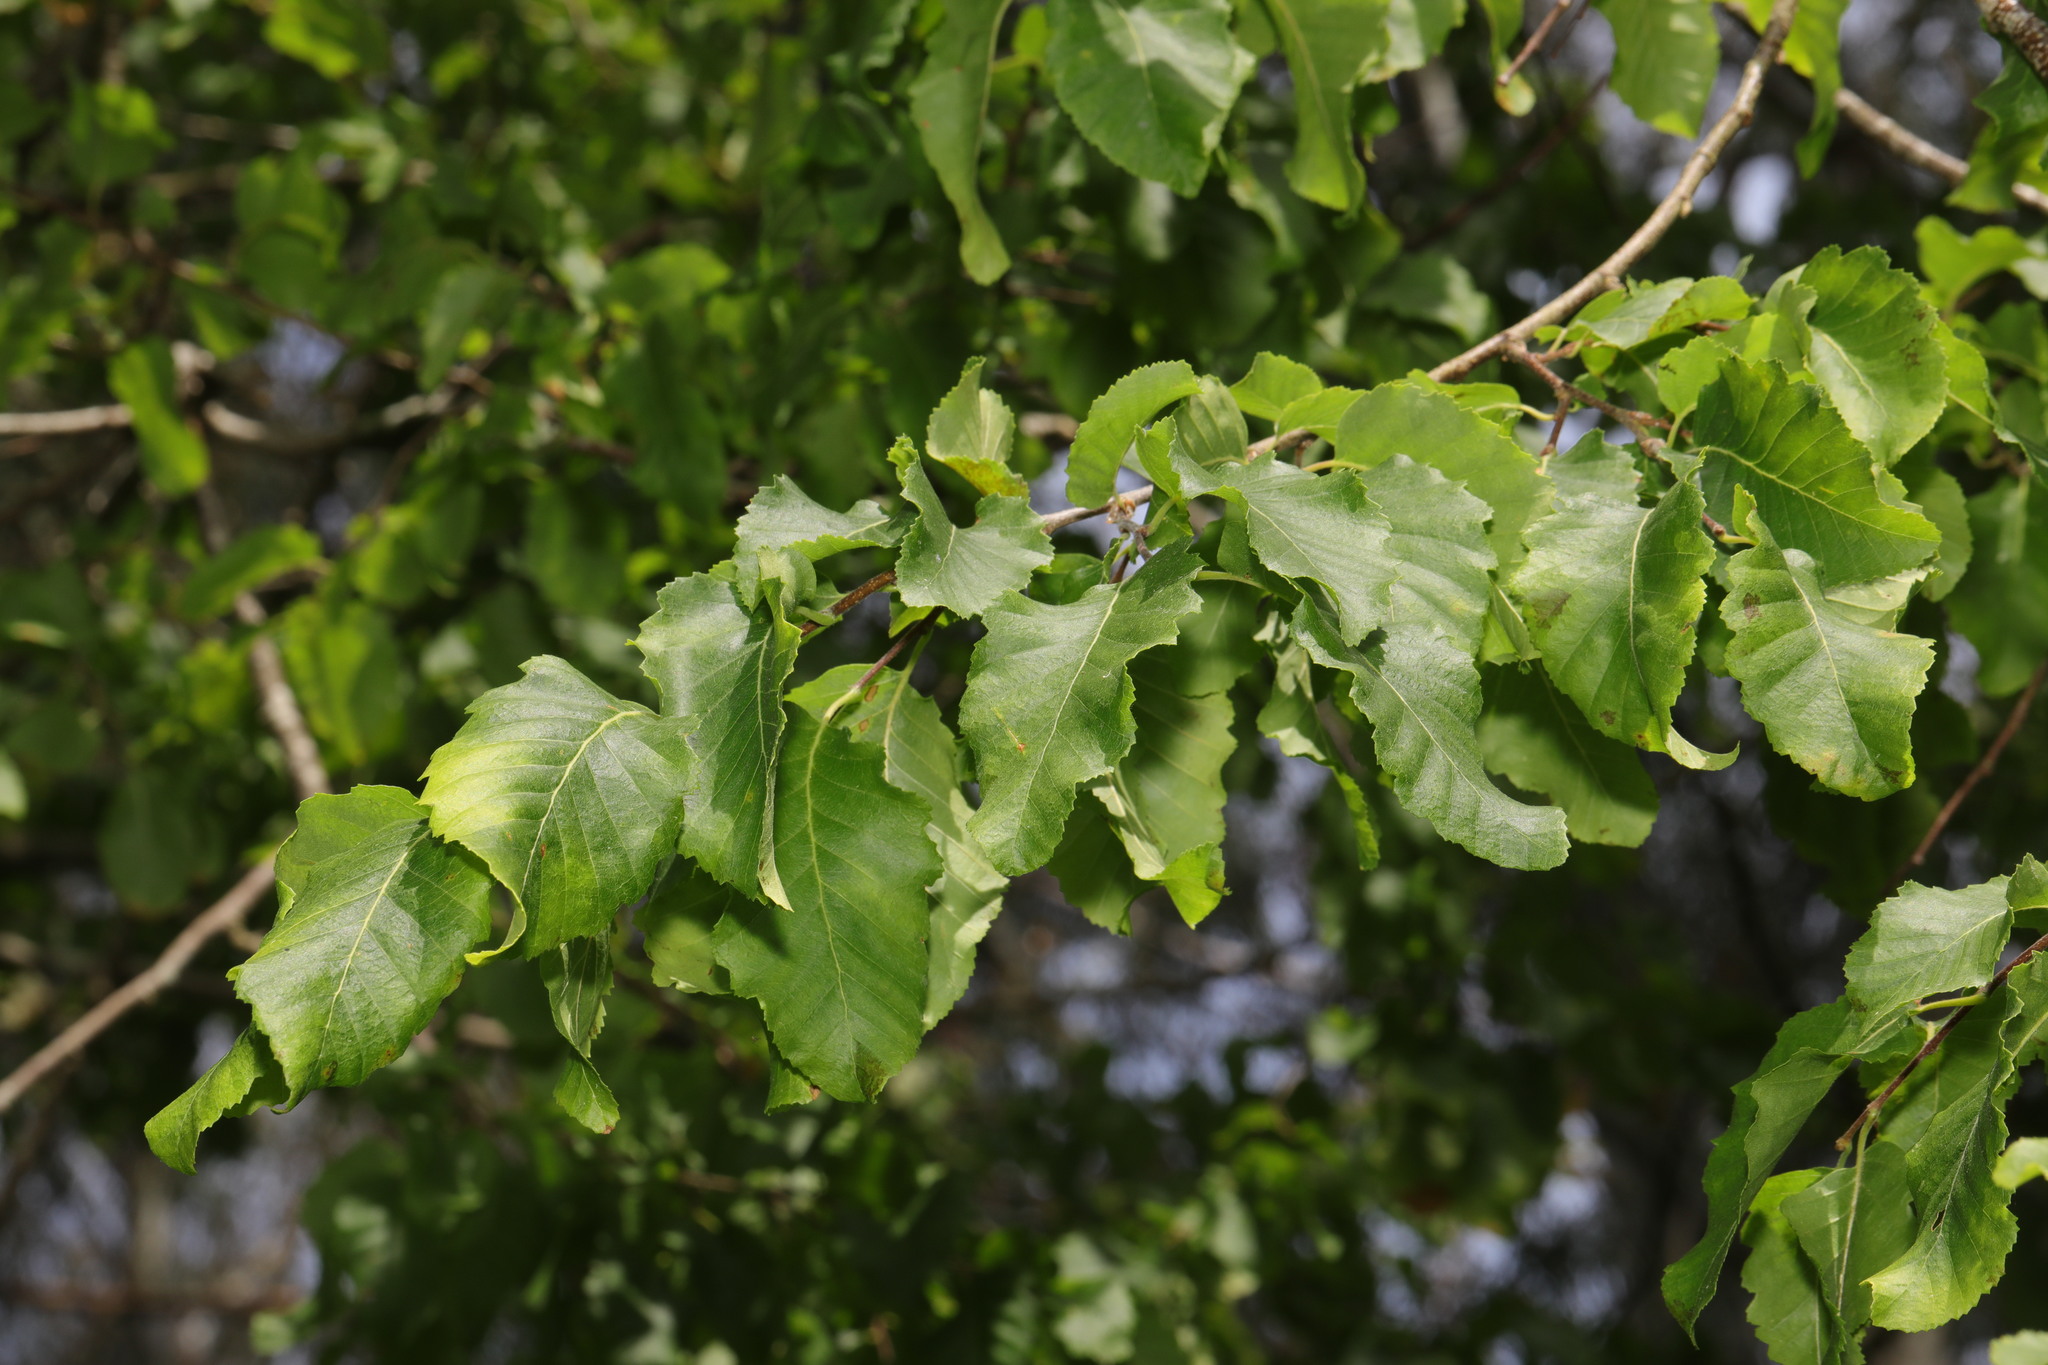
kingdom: Plantae
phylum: Tracheophyta
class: Magnoliopsida
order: Fagales
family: Betulaceae
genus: Corylus
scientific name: Corylus colurna
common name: Turkish hazel
